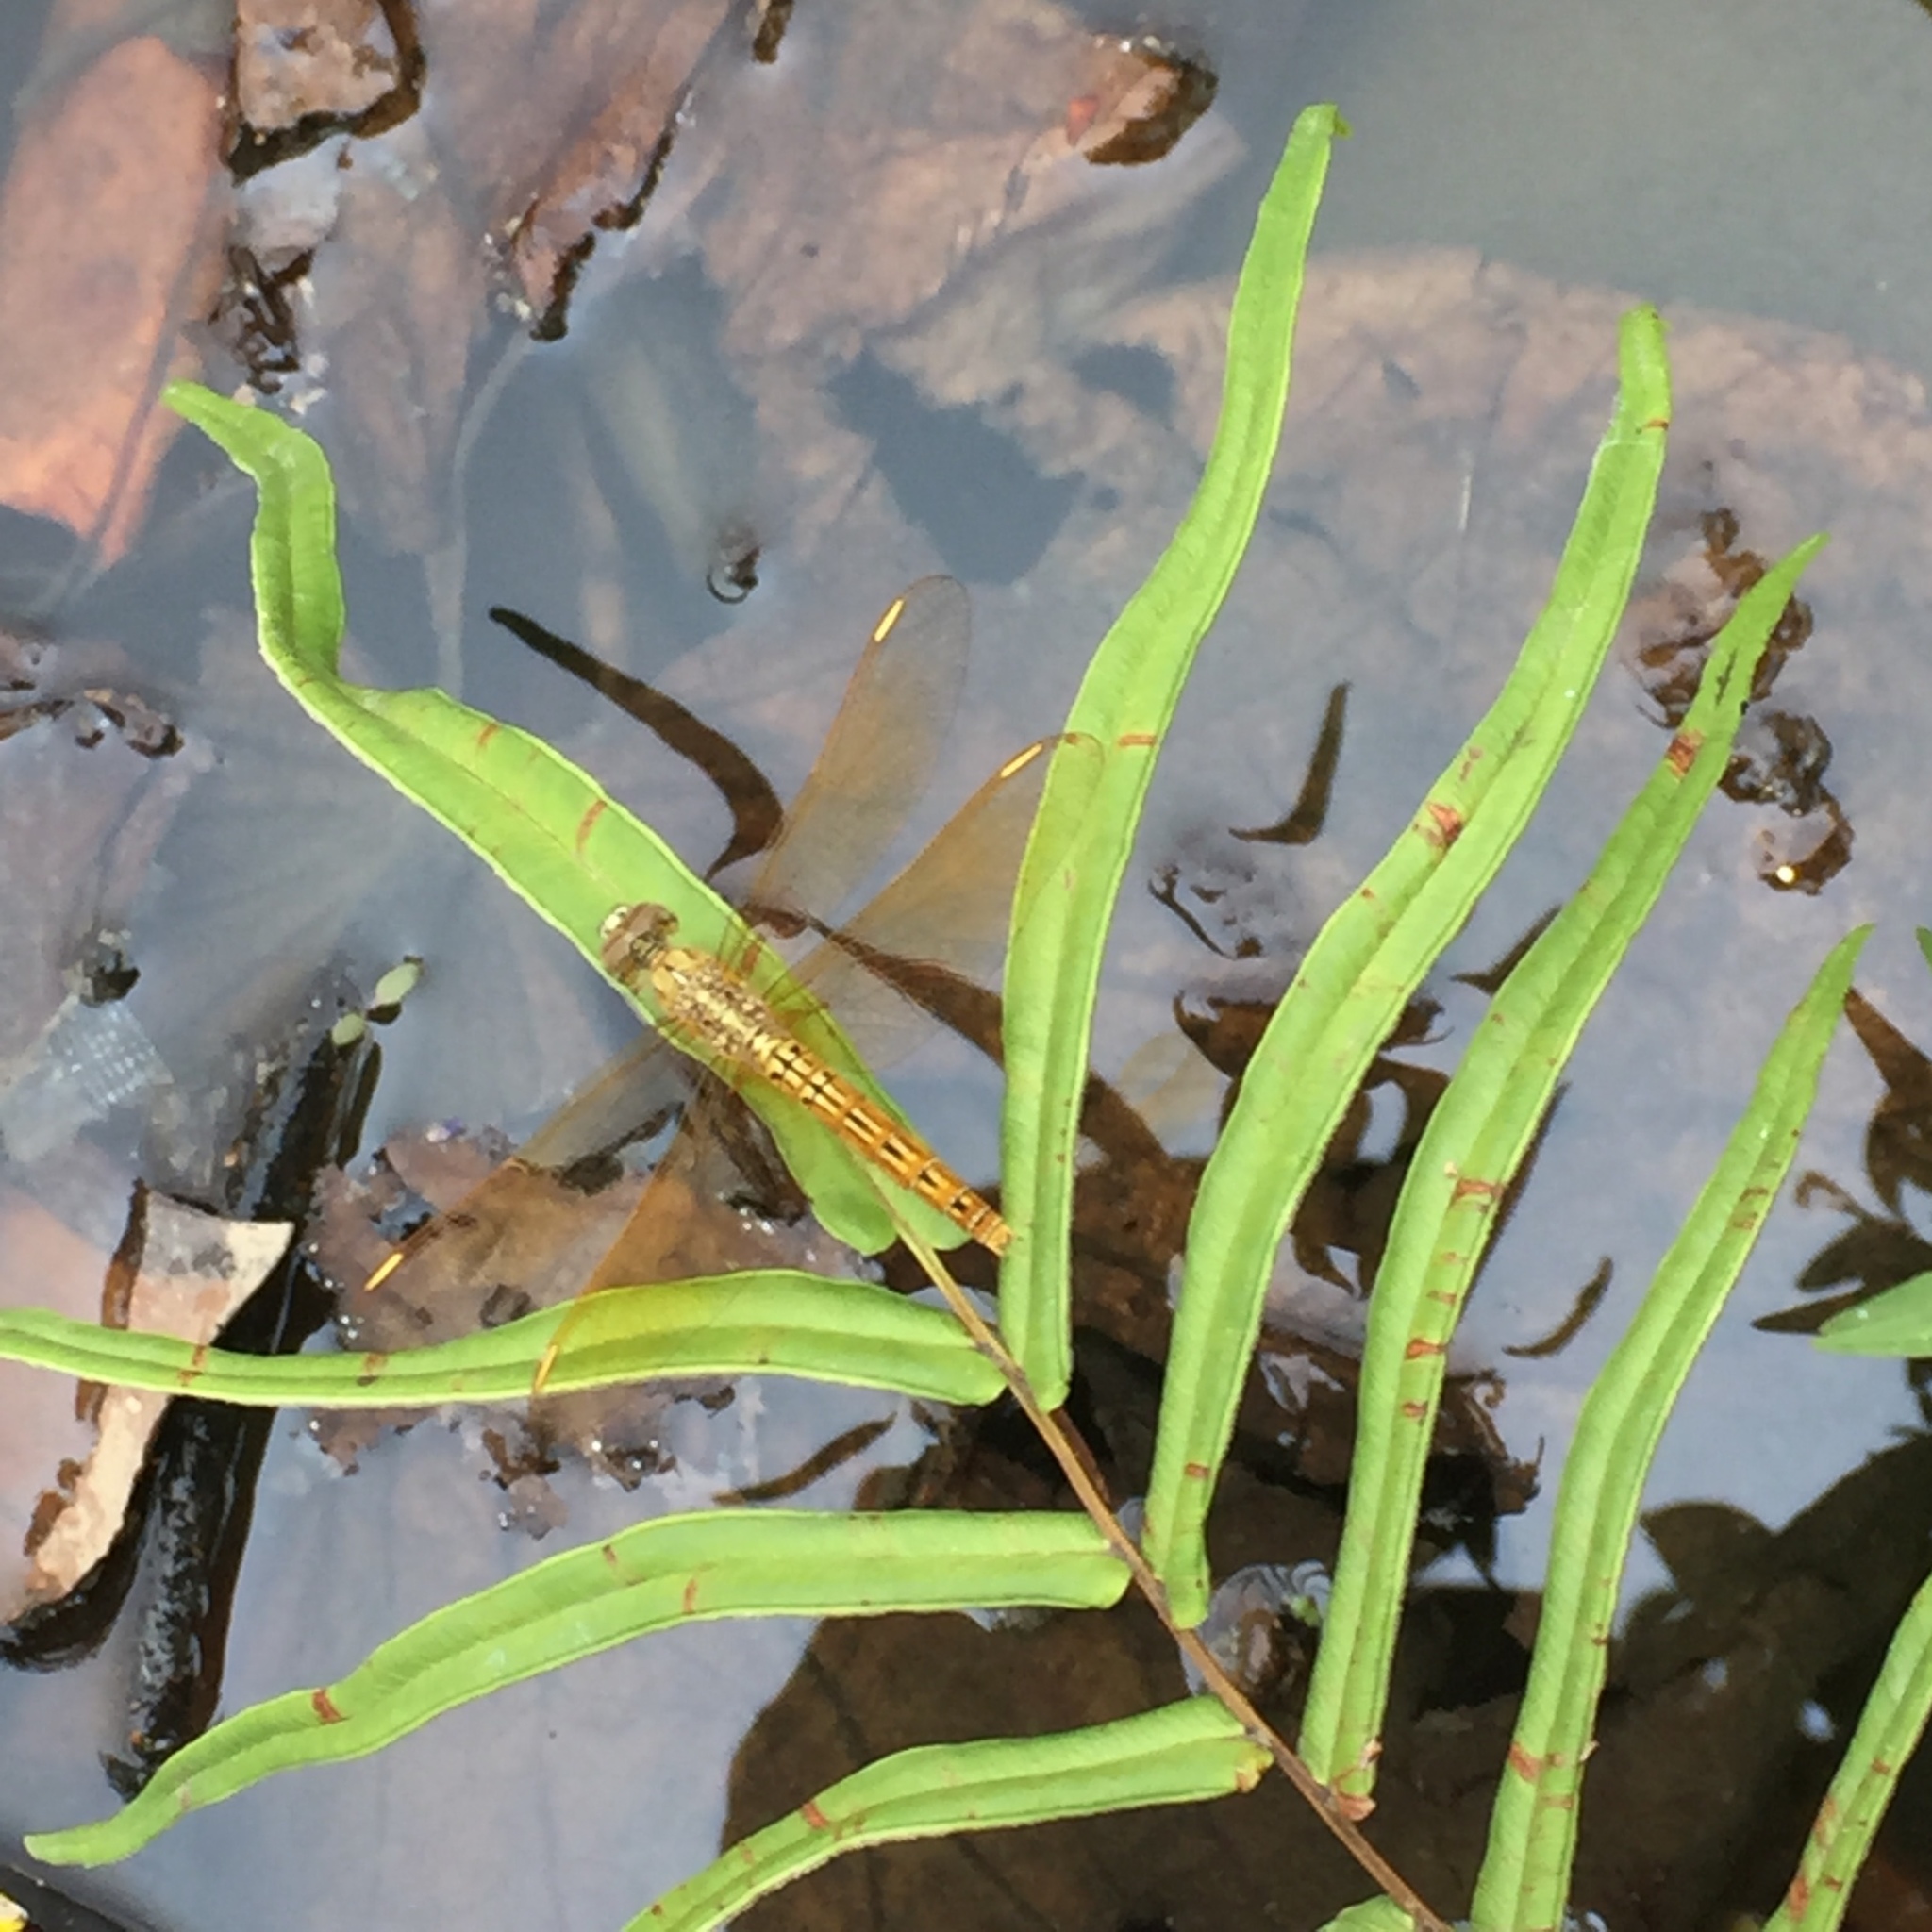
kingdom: Animalia
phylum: Arthropoda
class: Insecta
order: Odonata
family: Libellulidae
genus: Brachythemis
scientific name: Brachythemis contaminata
